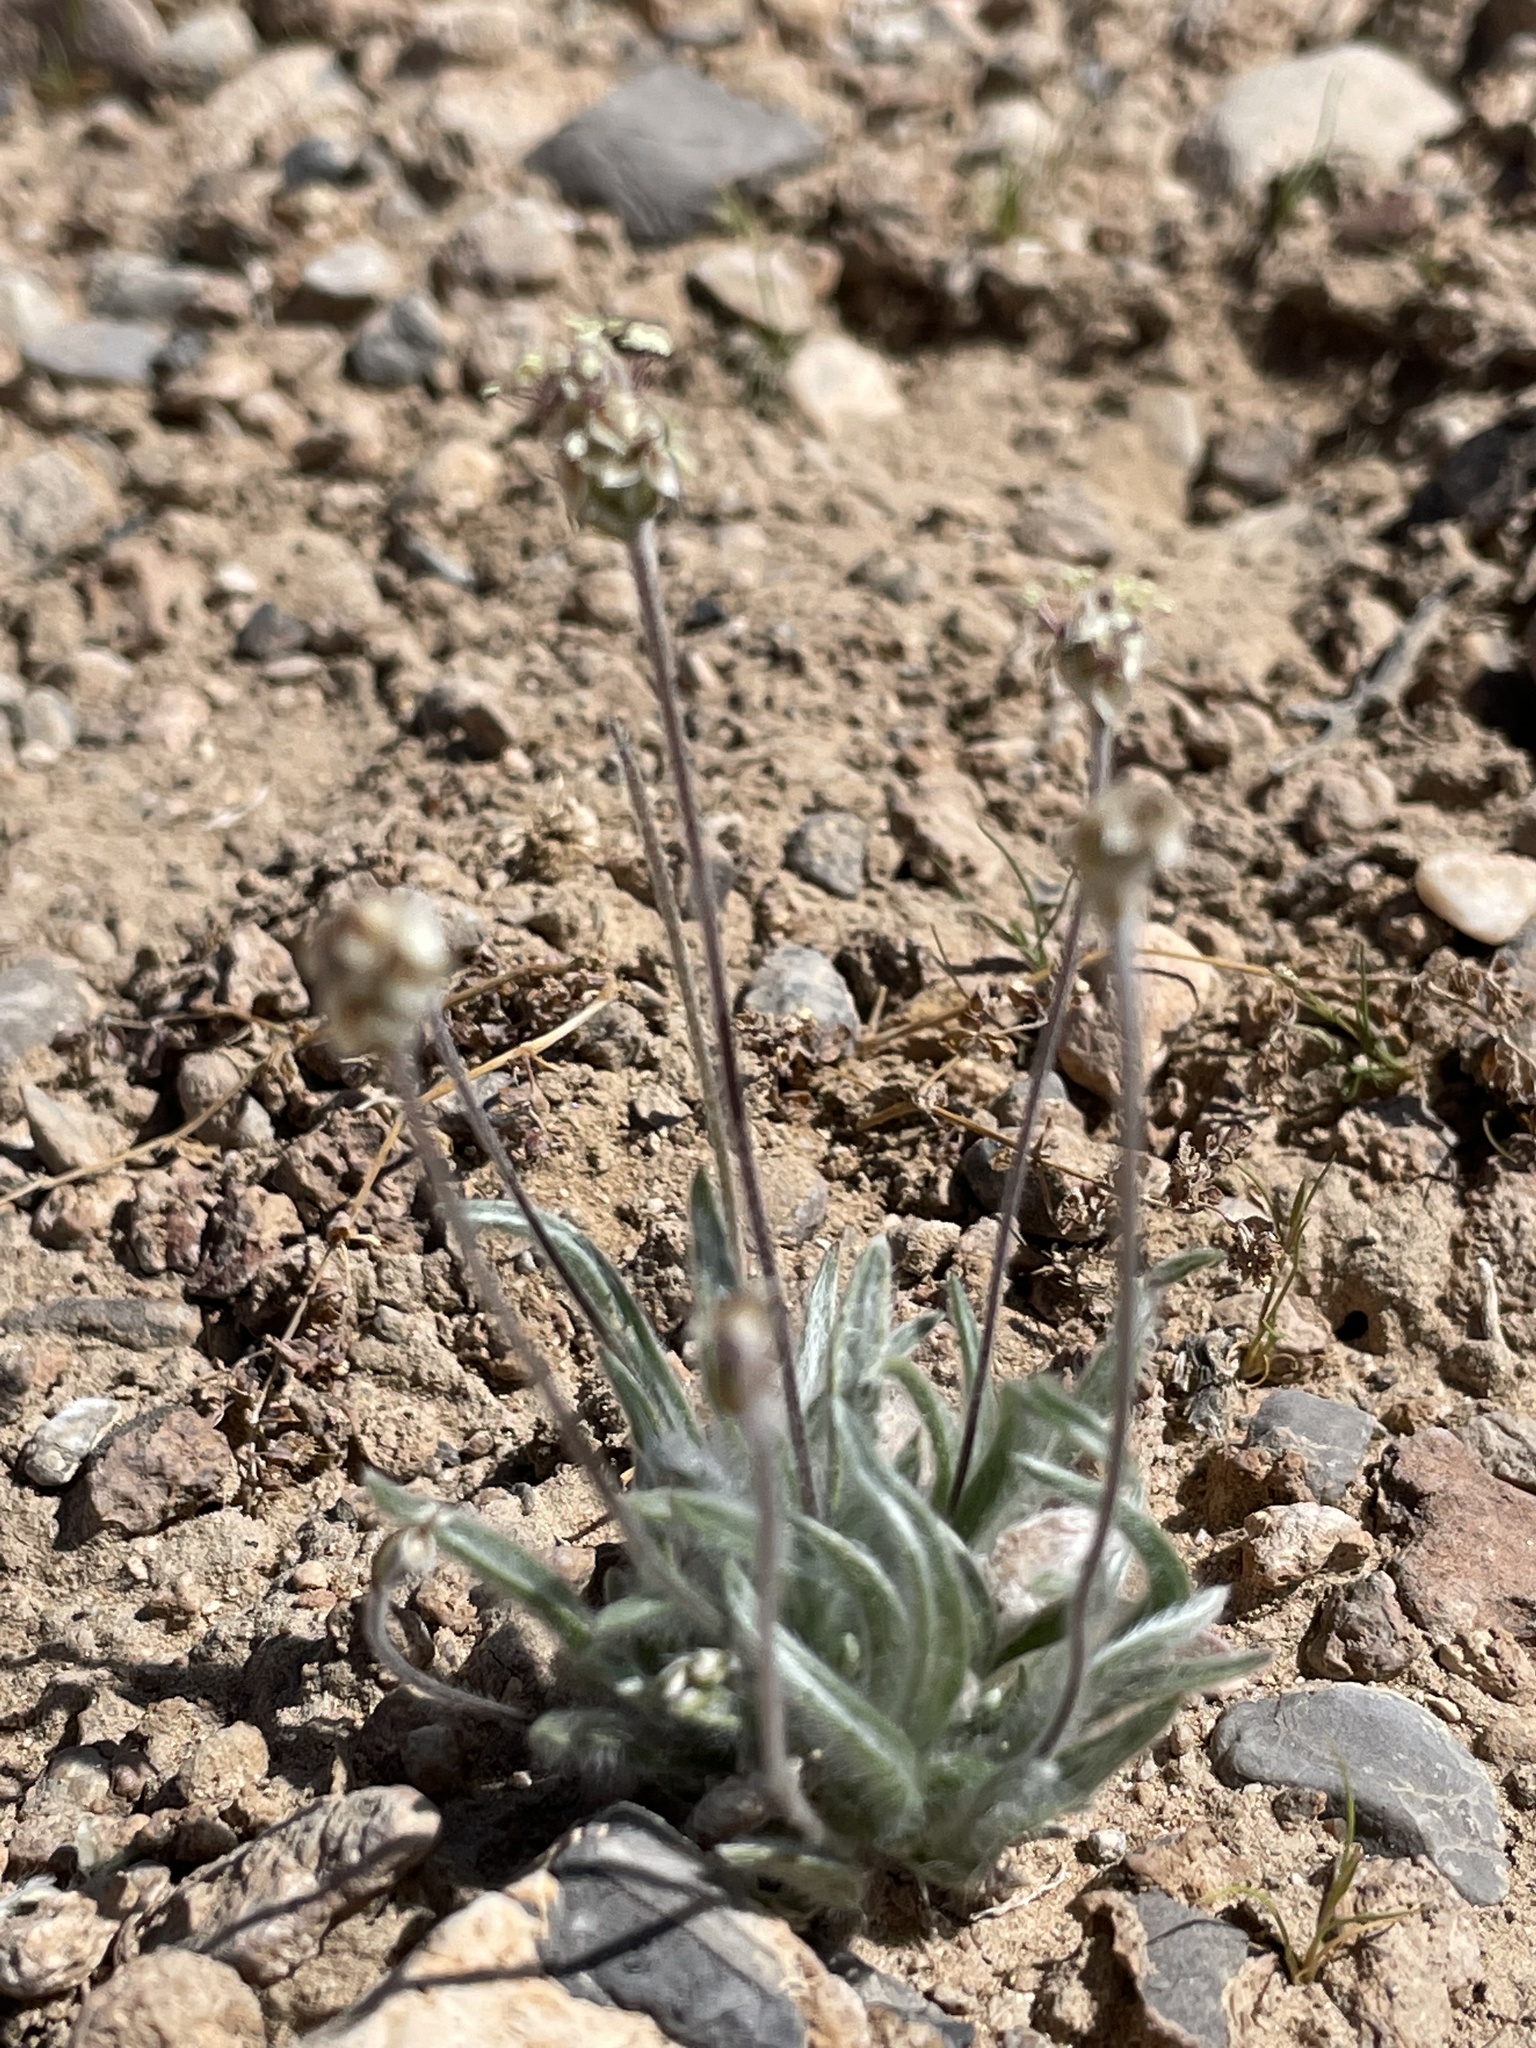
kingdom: Plantae
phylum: Tracheophyta
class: Magnoliopsida
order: Lamiales
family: Plantaginaceae
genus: Plantago
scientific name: Plantago ovata
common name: Blond plantain
